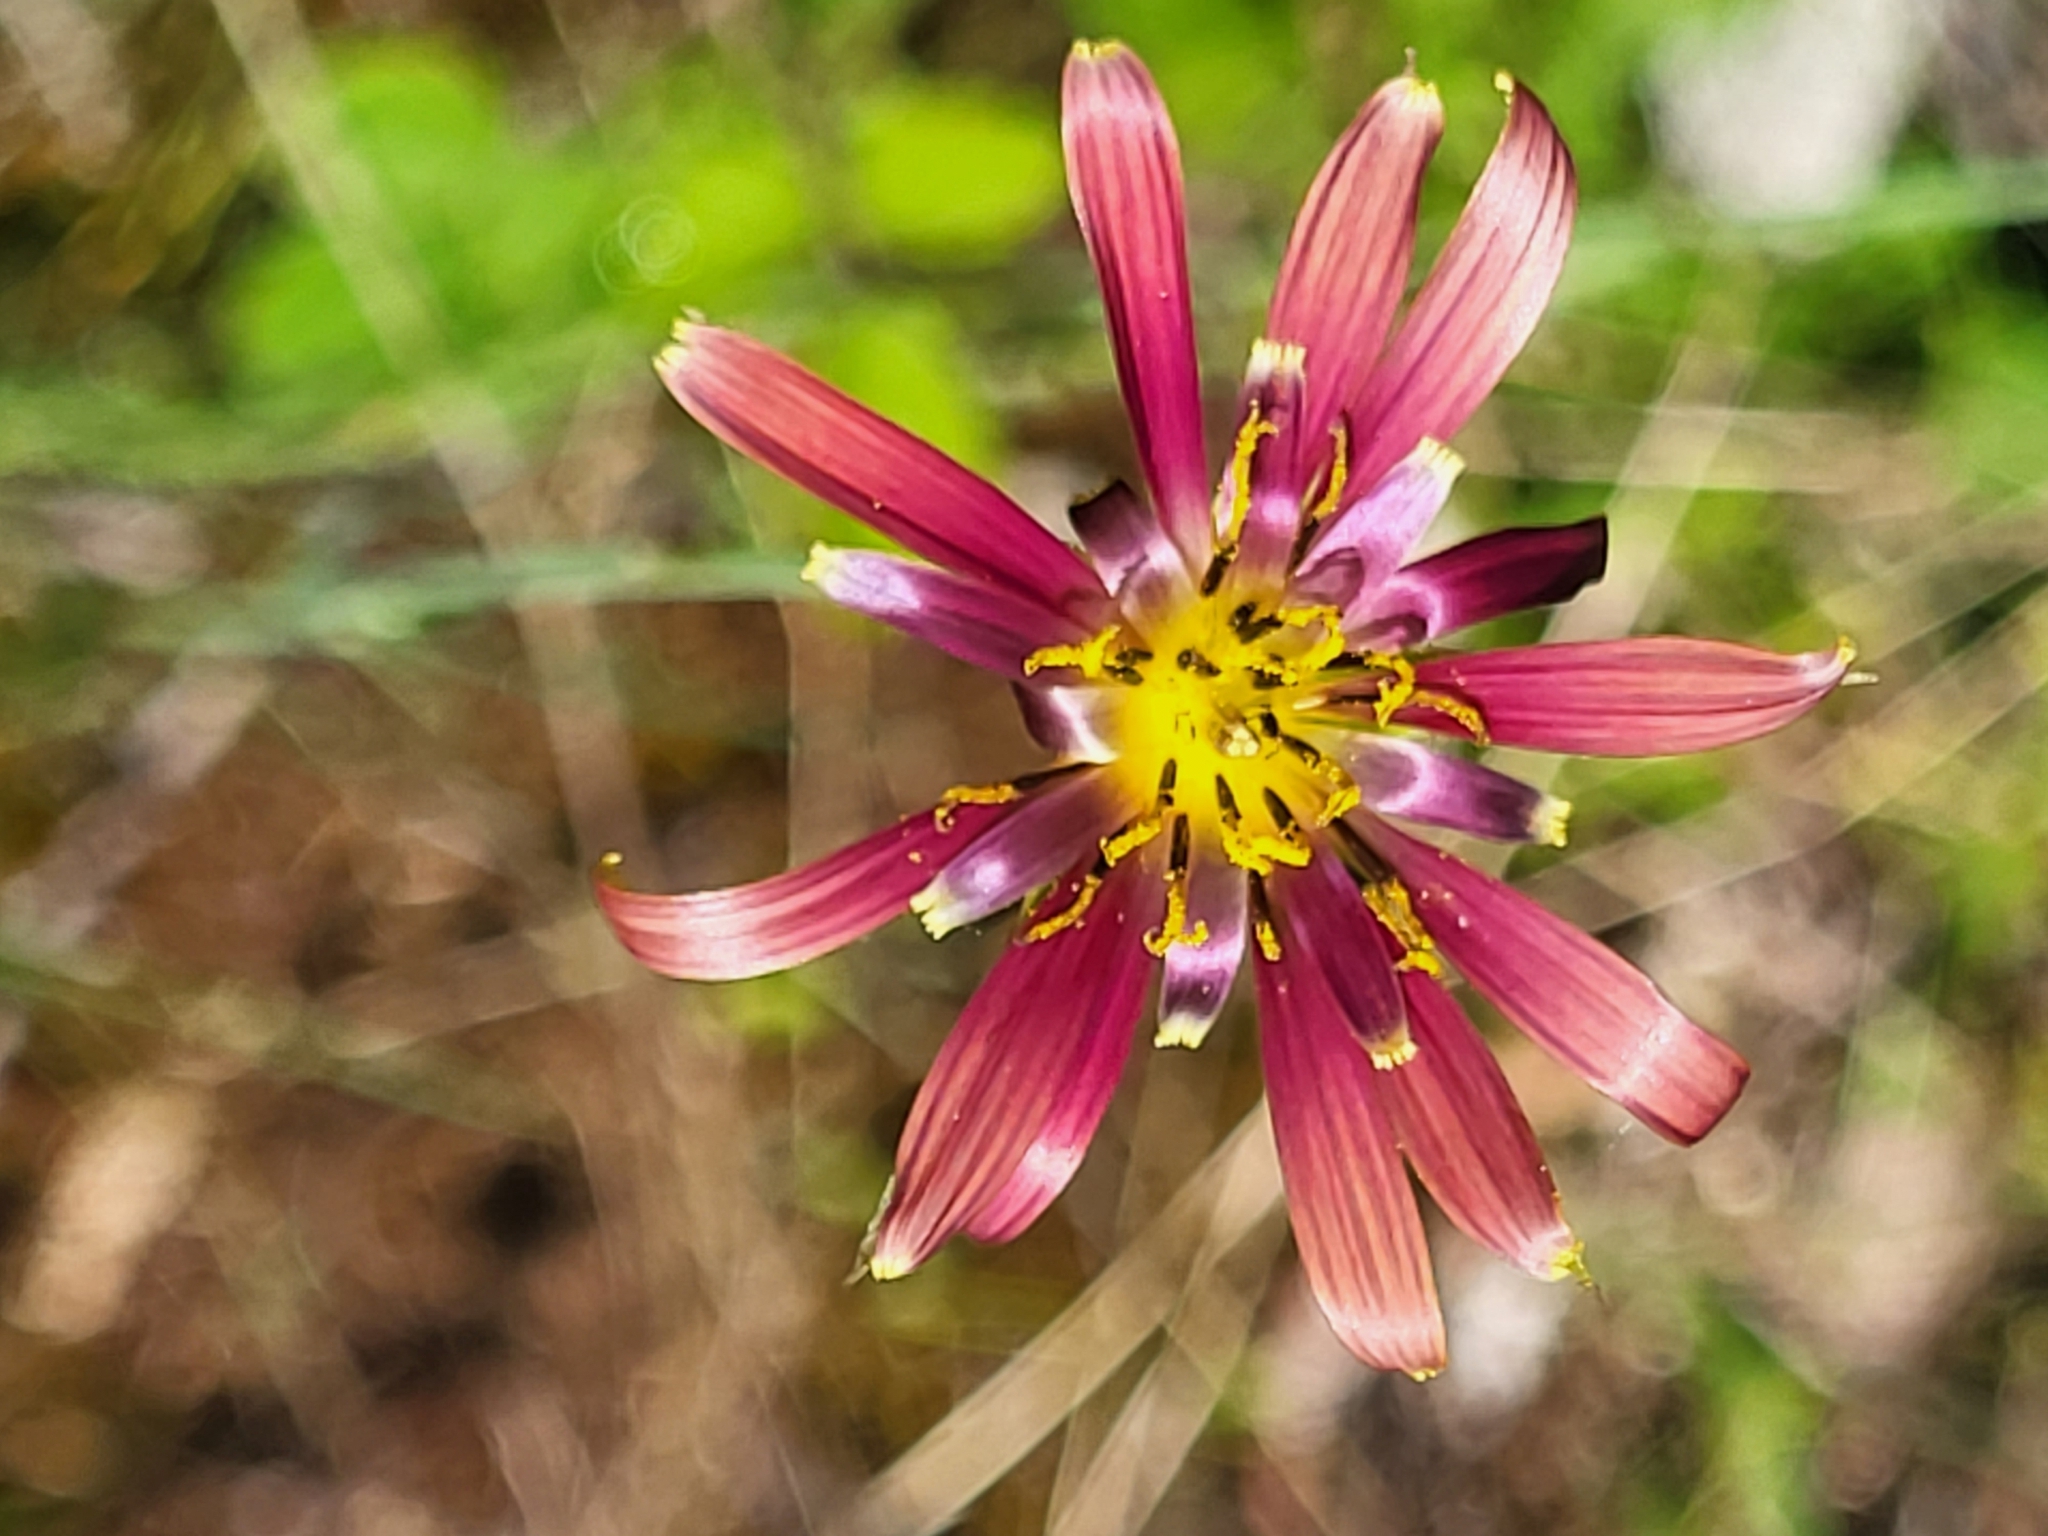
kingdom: Plantae
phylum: Tracheophyta
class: Magnoliopsida
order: Asterales
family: Asteraceae
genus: Tragopogon
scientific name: Tragopogon balcanicus
